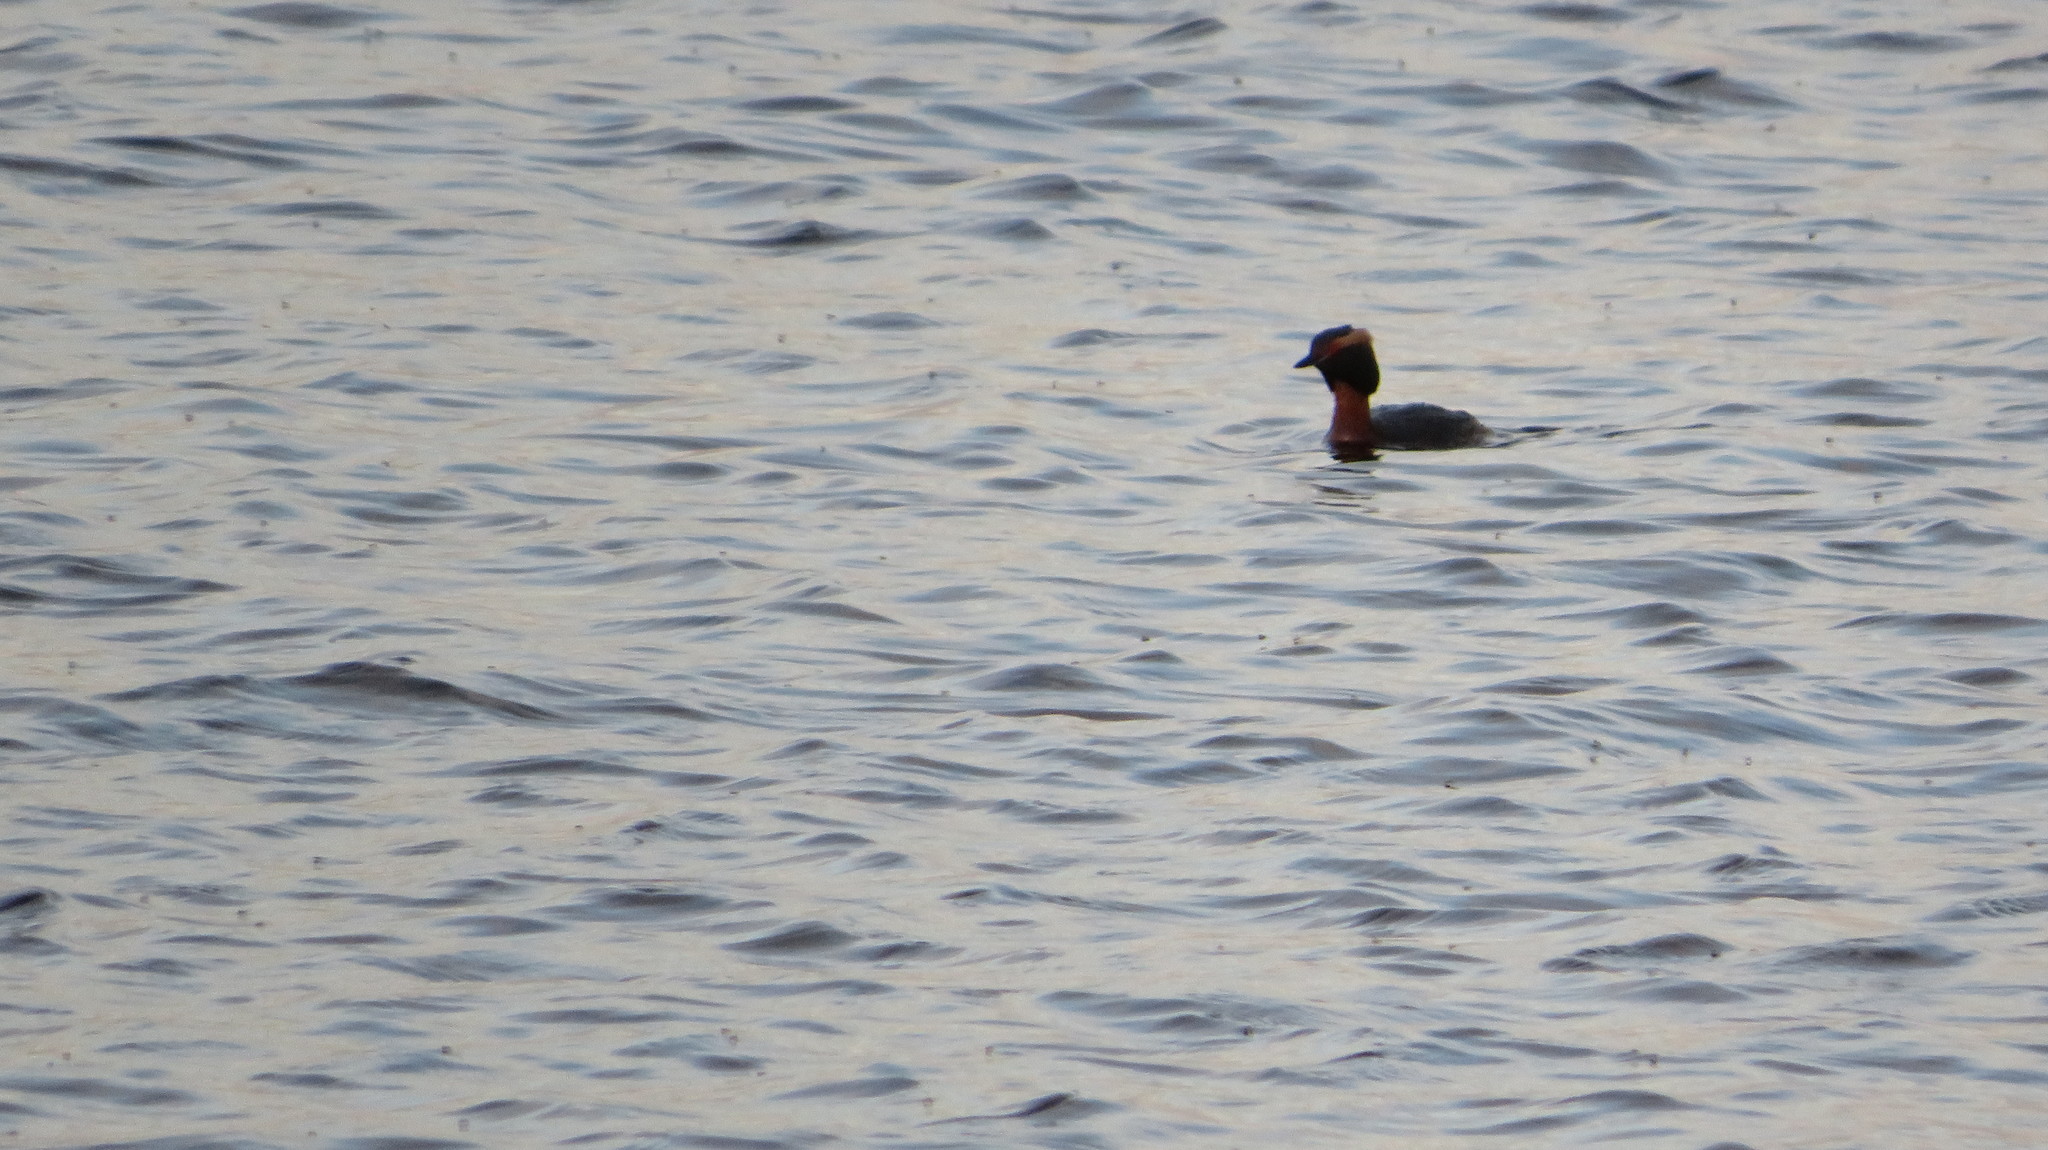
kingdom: Animalia
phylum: Chordata
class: Aves
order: Podicipediformes
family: Podicipedidae
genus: Podiceps
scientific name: Podiceps auritus
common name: Horned grebe
